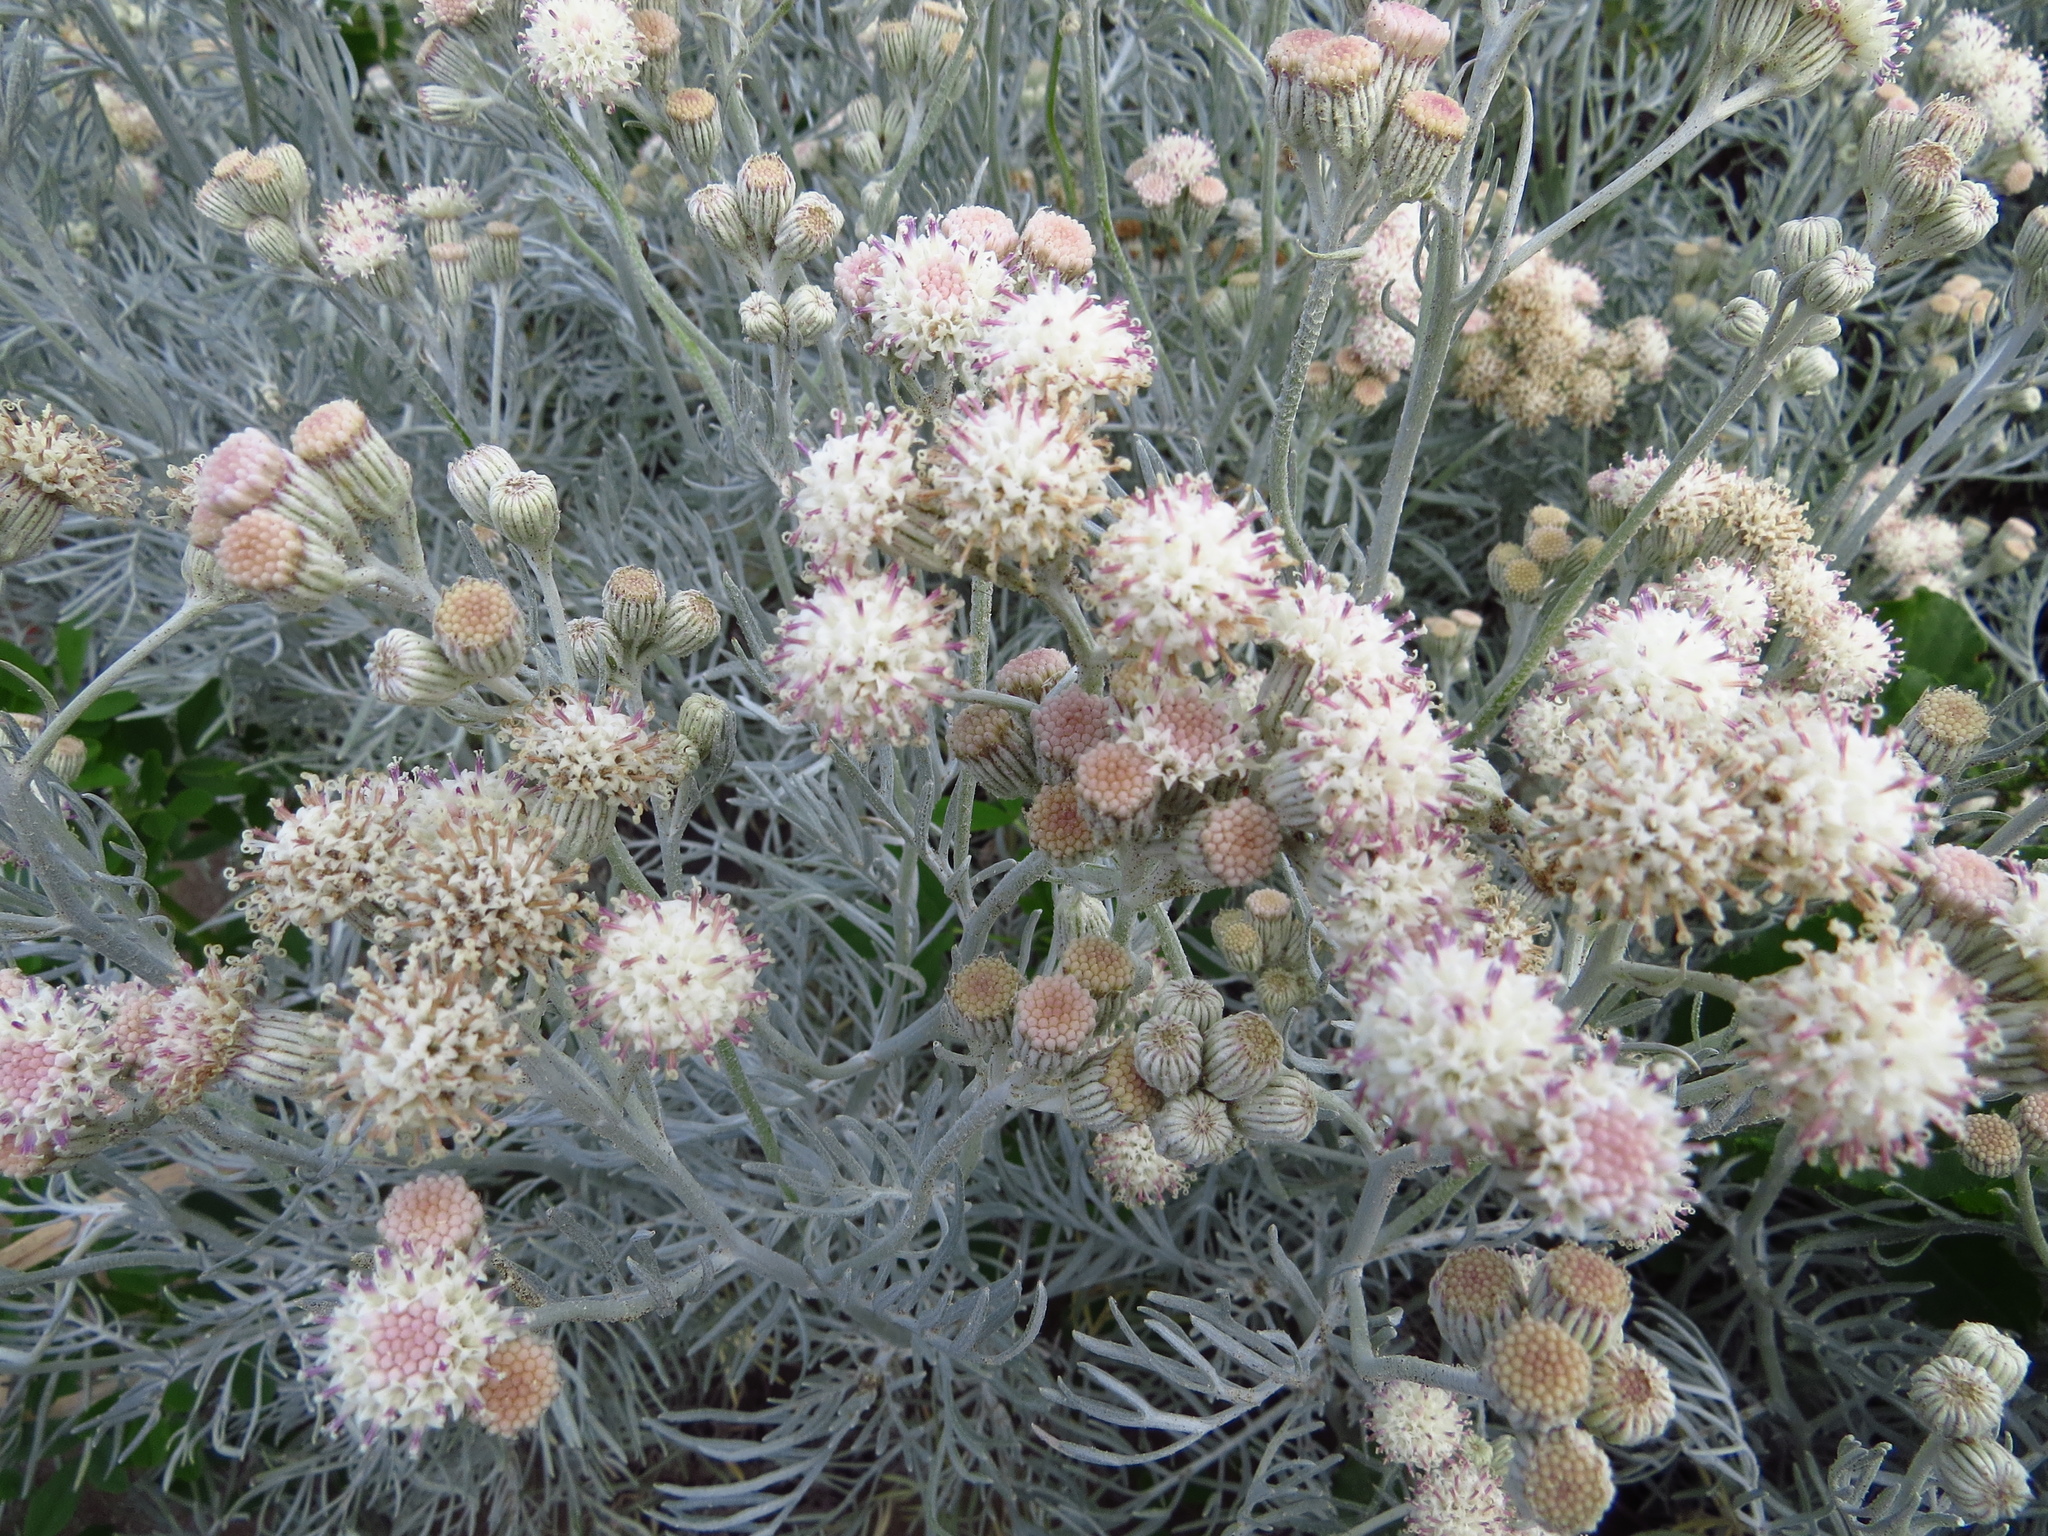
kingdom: Plantae
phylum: Tracheophyta
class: Magnoliopsida
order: Asterales
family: Asteraceae
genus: Senecio
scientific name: Senecio vira-vira
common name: Dusty-miller
